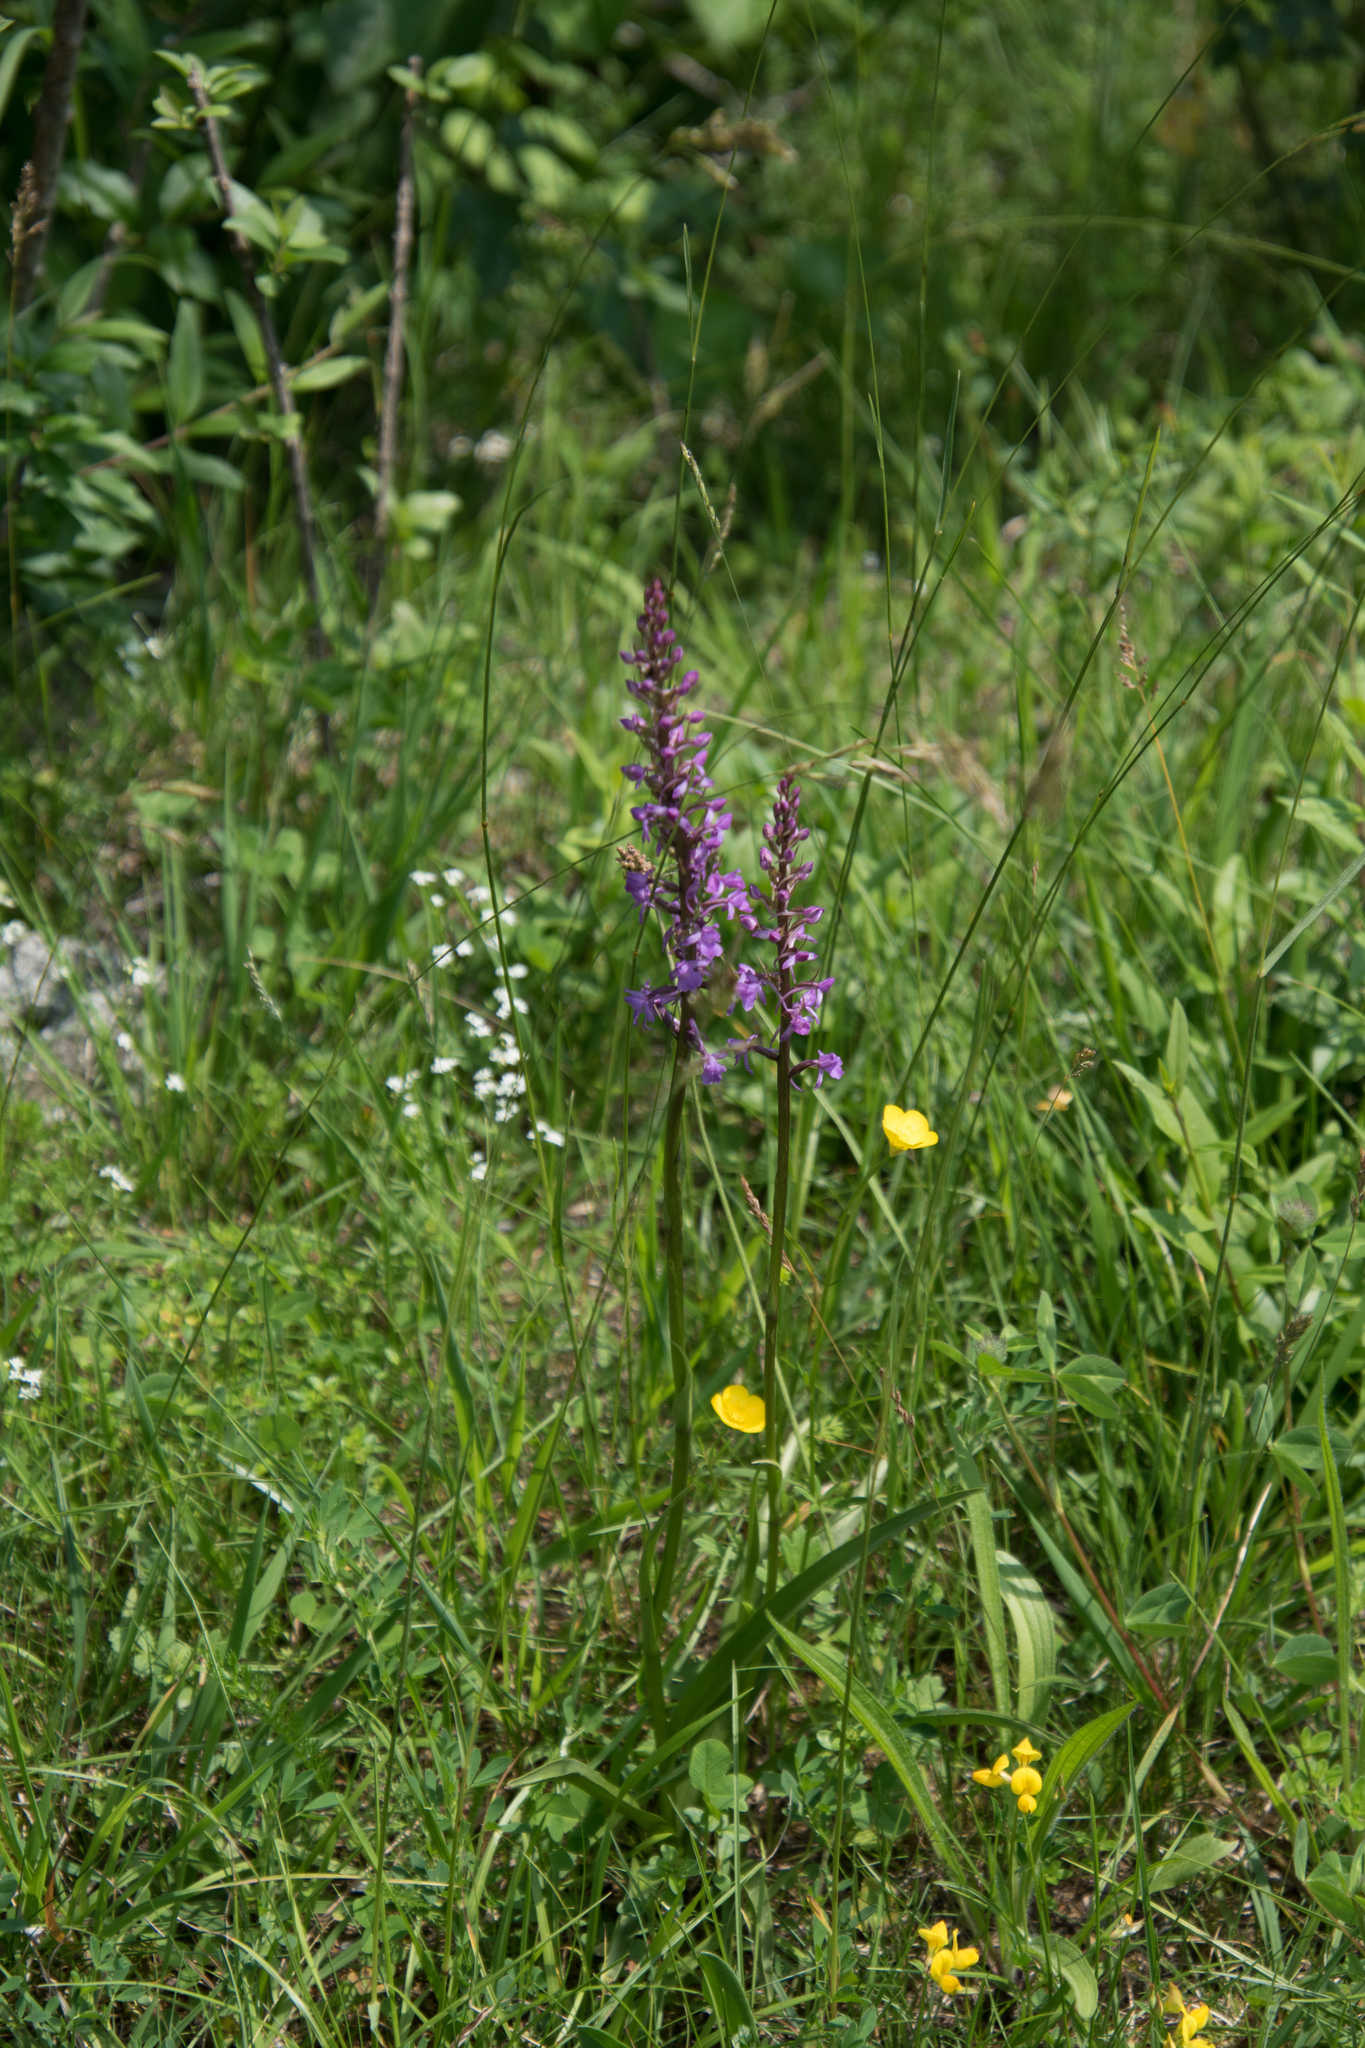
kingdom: Plantae
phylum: Tracheophyta
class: Liliopsida
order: Asparagales
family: Orchidaceae
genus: Gymnadenia
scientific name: Gymnadenia conopsea
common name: Fragrant orchid
